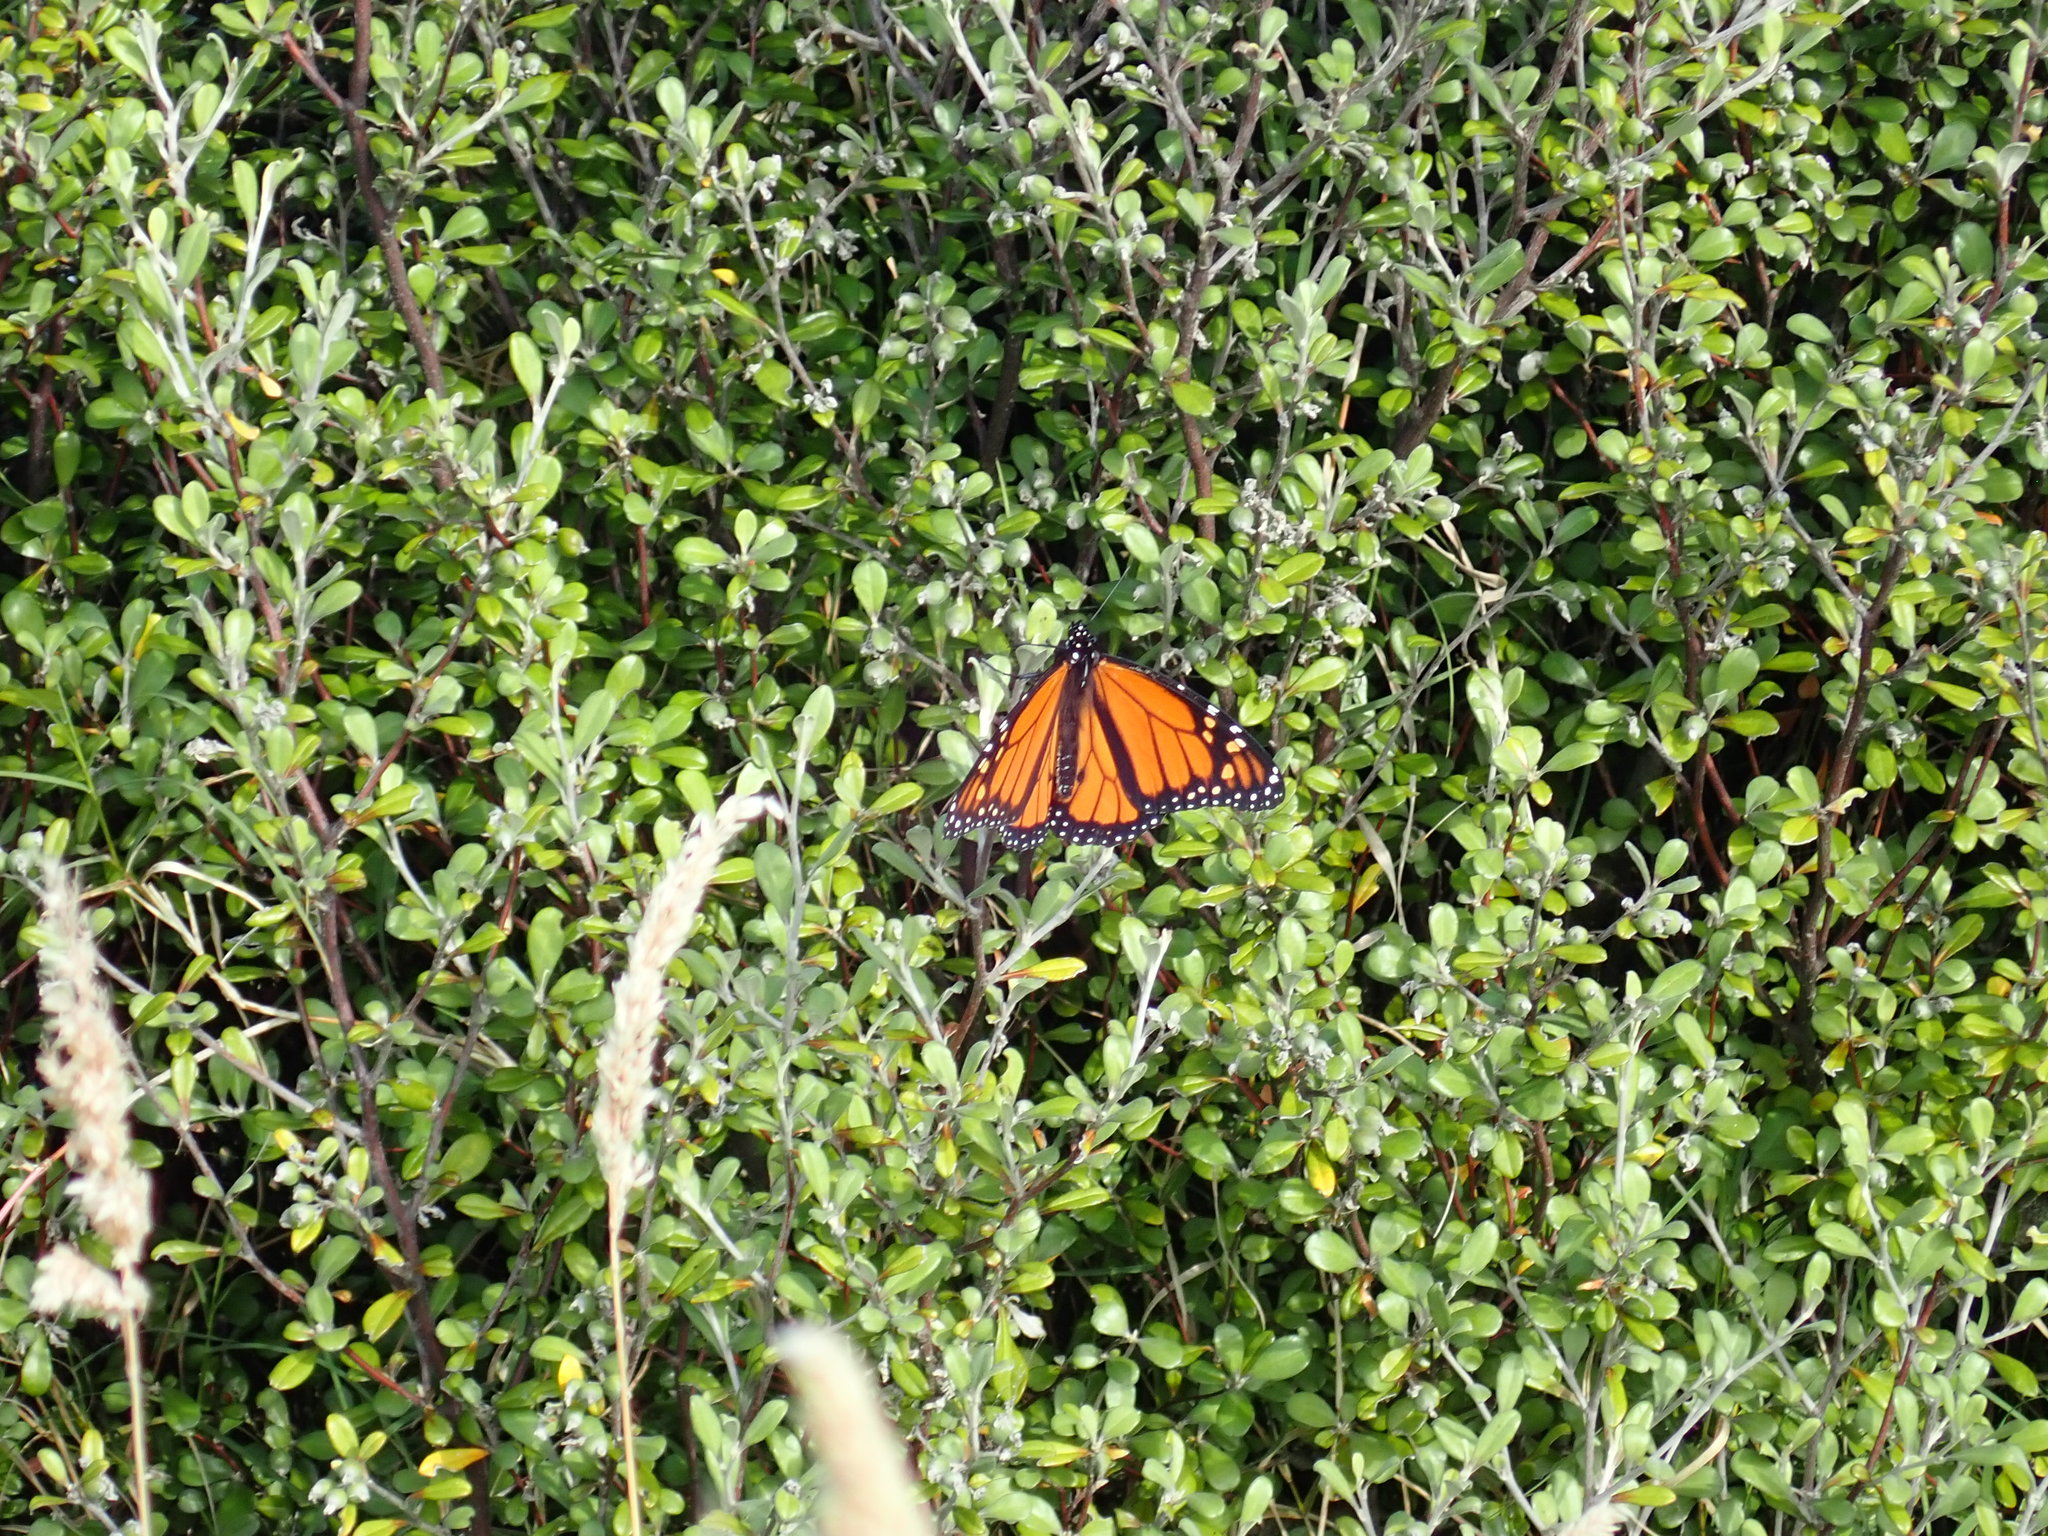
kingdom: Animalia
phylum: Arthropoda
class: Insecta
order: Lepidoptera
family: Nymphalidae
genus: Danaus
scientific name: Danaus plexippus
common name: Monarch
